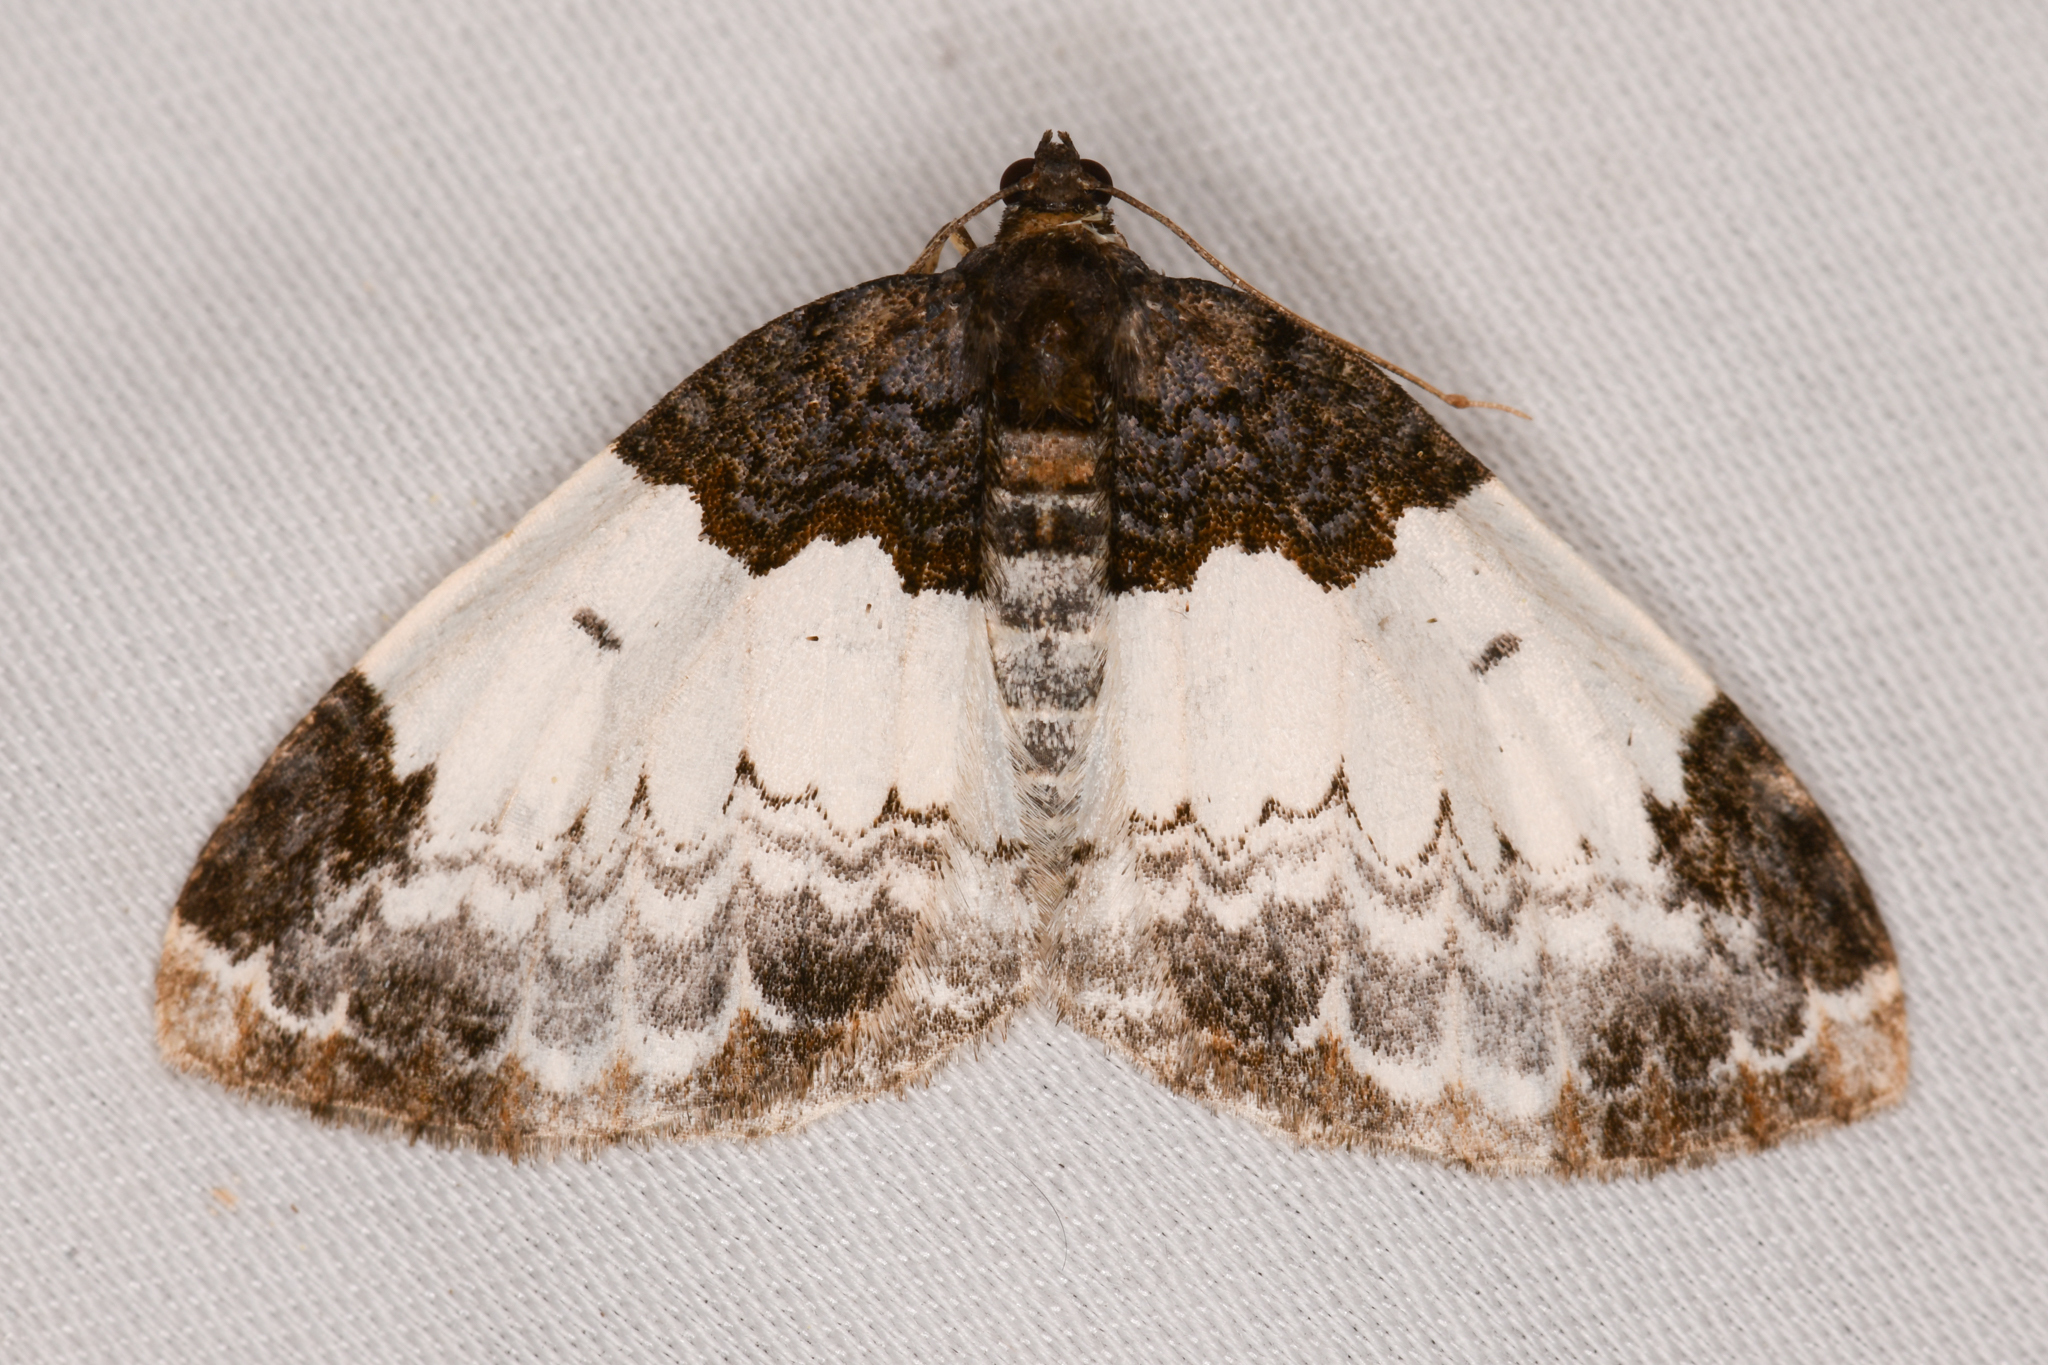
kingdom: Animalia
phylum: Arthropoda
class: Insecta
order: Lepidoptera
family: Geometridae
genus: Mesoleuca
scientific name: Mesoleuca ruficillata
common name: White-ribboned carpet moth
